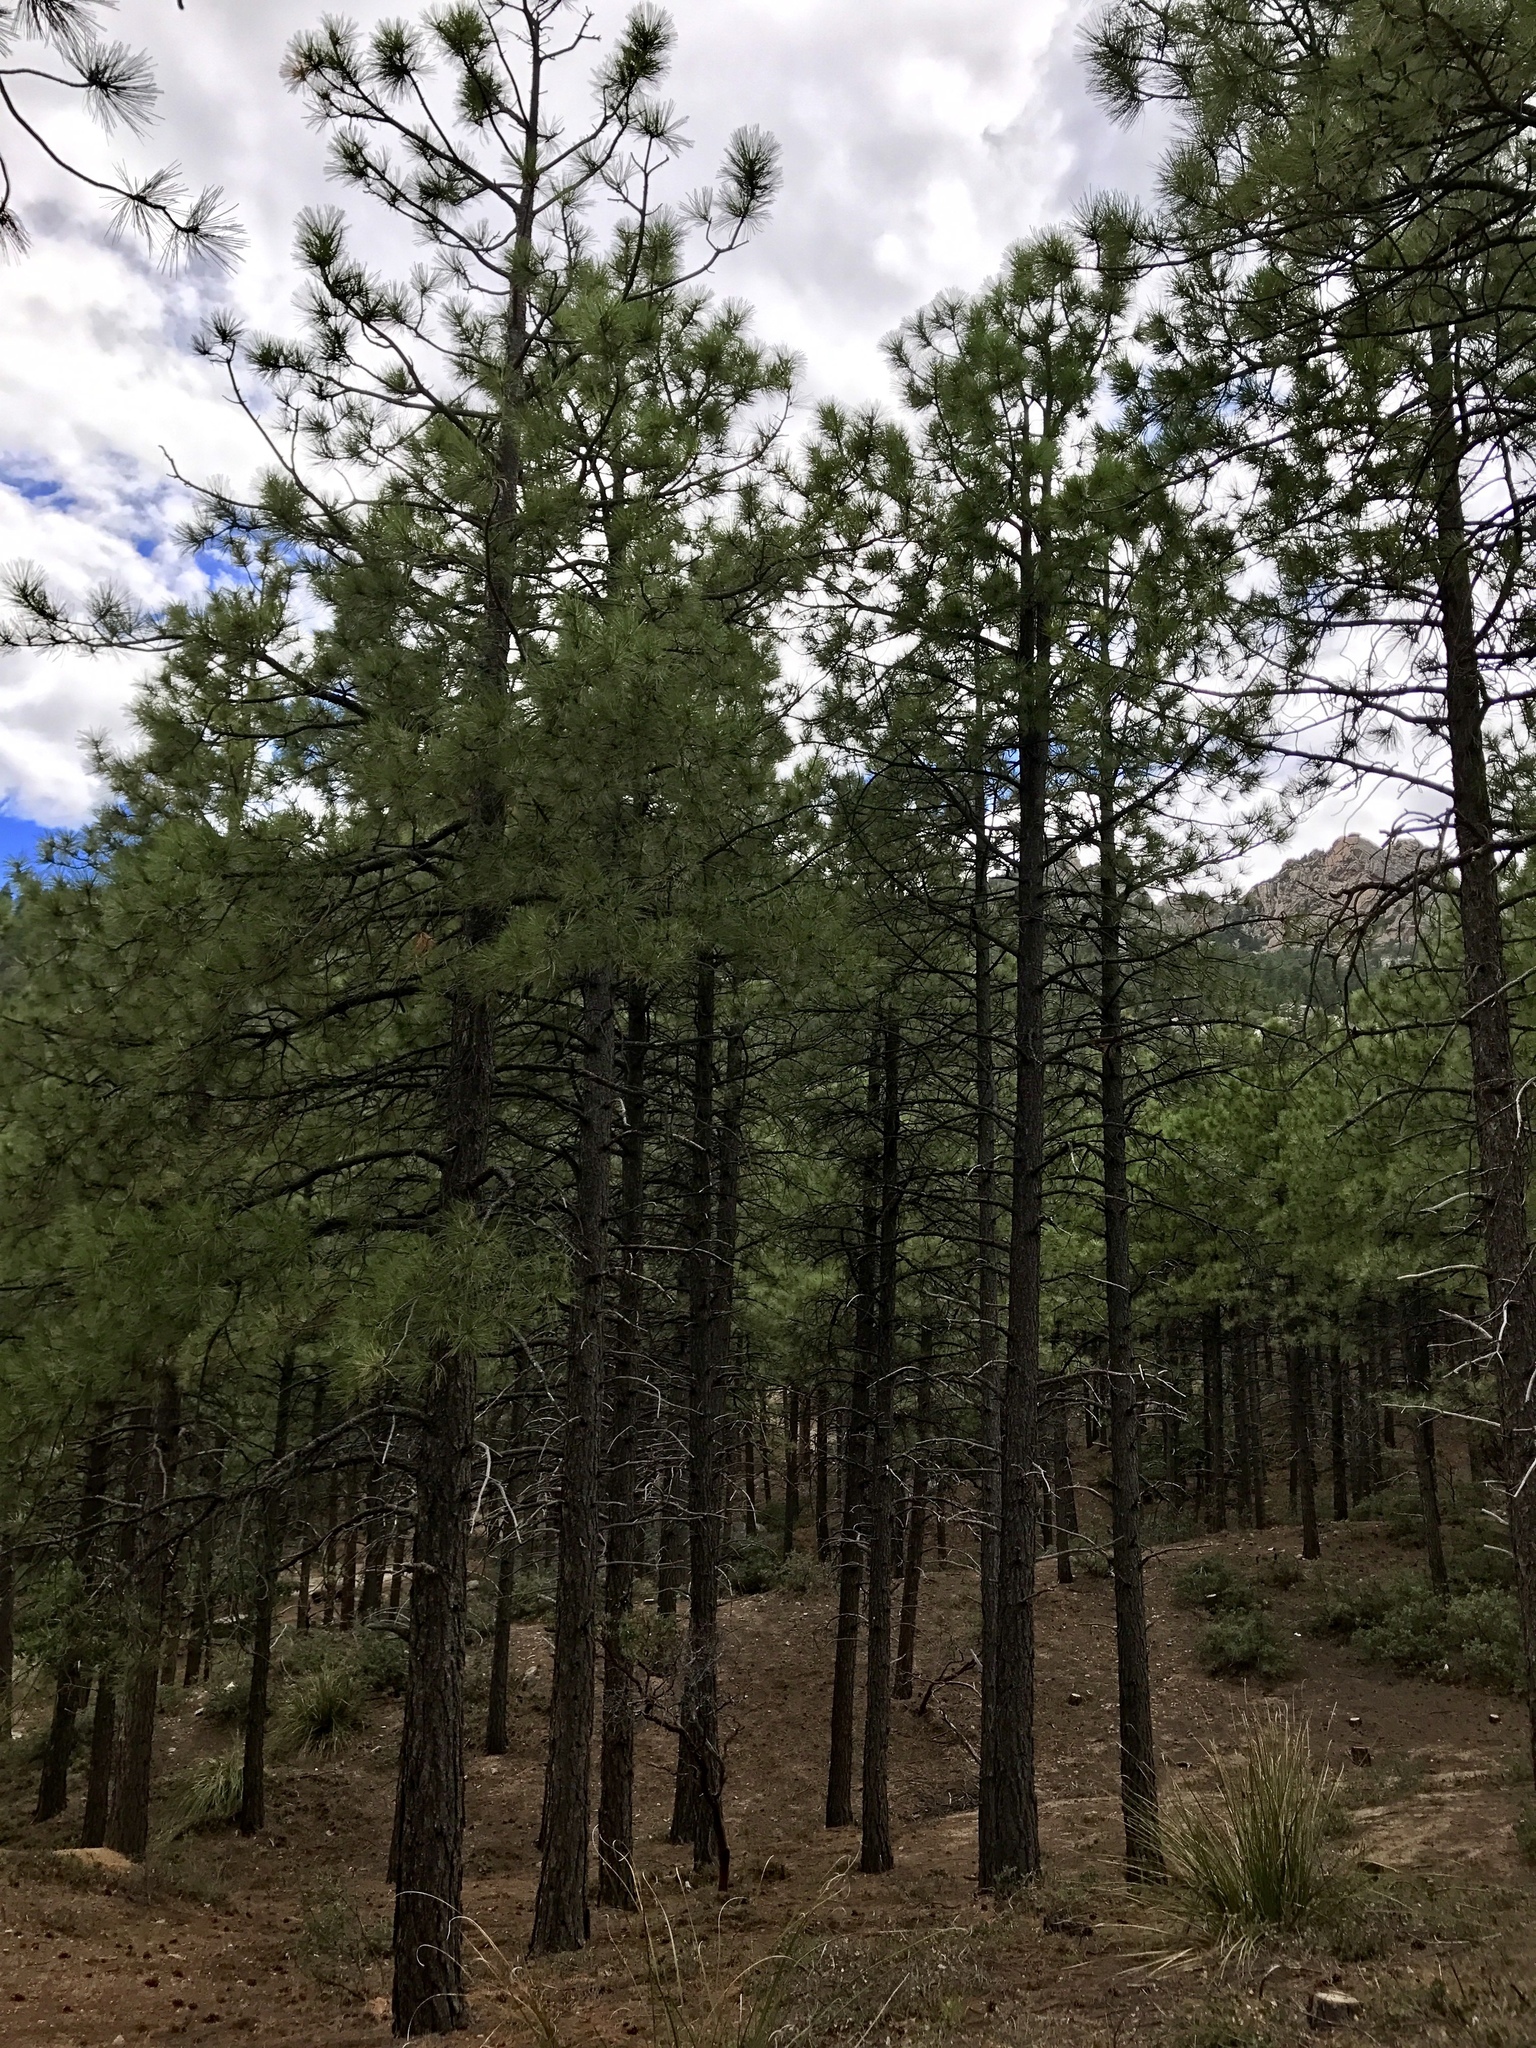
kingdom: Plantae
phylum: Tracheophyta
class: Pinopsida
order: Pinales
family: Pinaceae
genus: Pinus
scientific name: Pinus ponderosa
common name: Western yellow-pine
